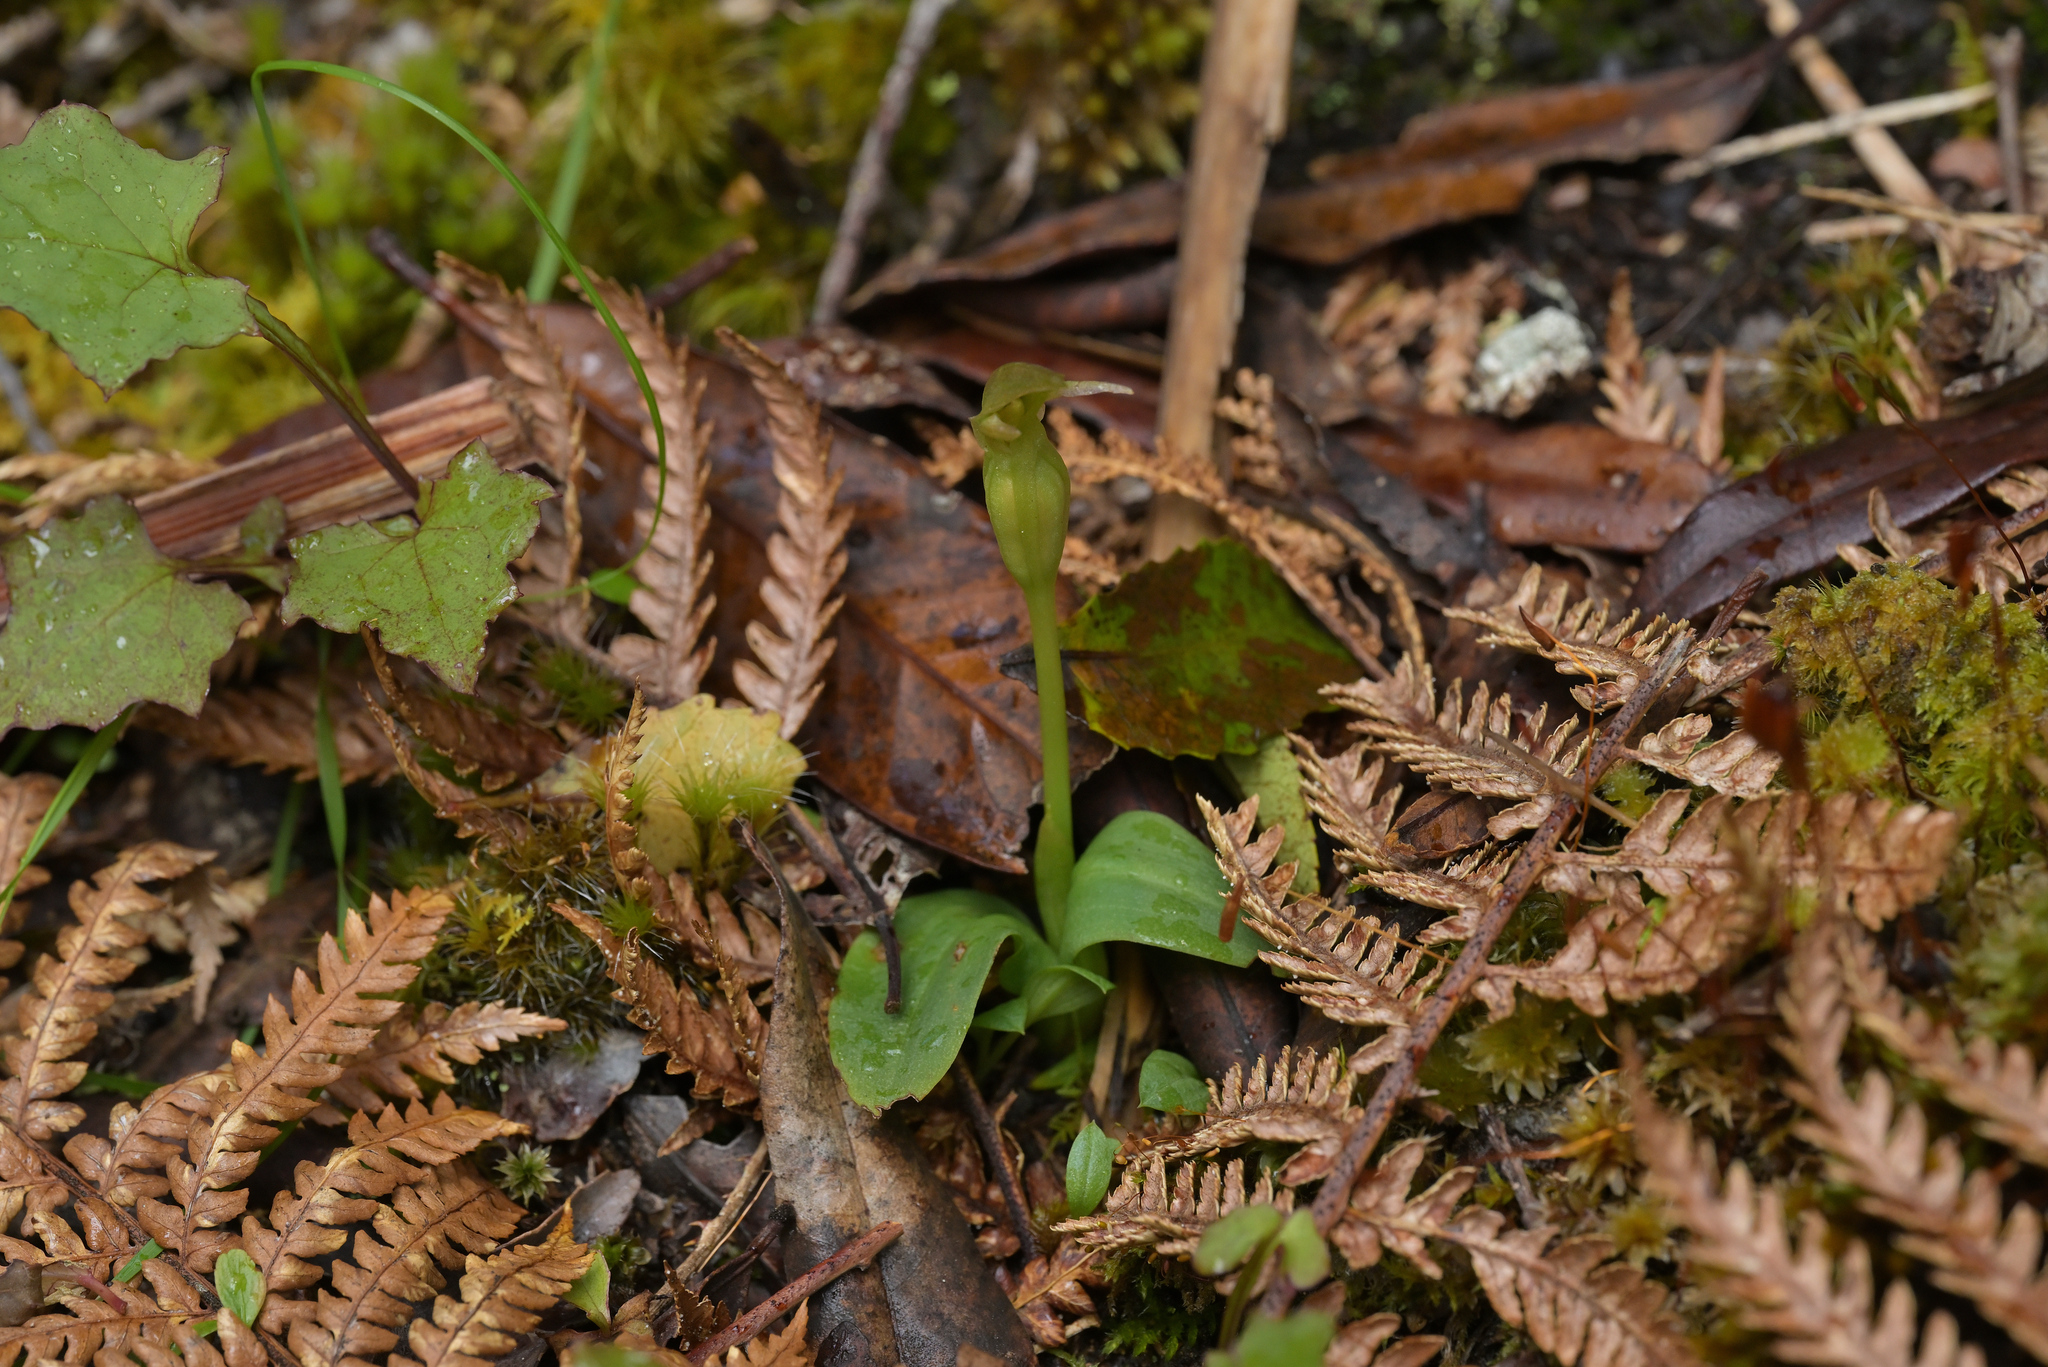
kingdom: Plantae
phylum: Tracheophyta
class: Liliopsida
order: Asparagales
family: Orchidaceae
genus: Chiloglottis
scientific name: Chiloglottis cornuta
